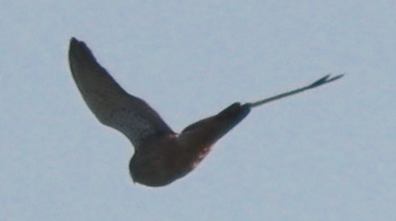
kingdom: Animalia
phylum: Chordata
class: Aves
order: Falconiformes
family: Falconidae
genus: Falco
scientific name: Falco tinnunculus
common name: Common kestrel
